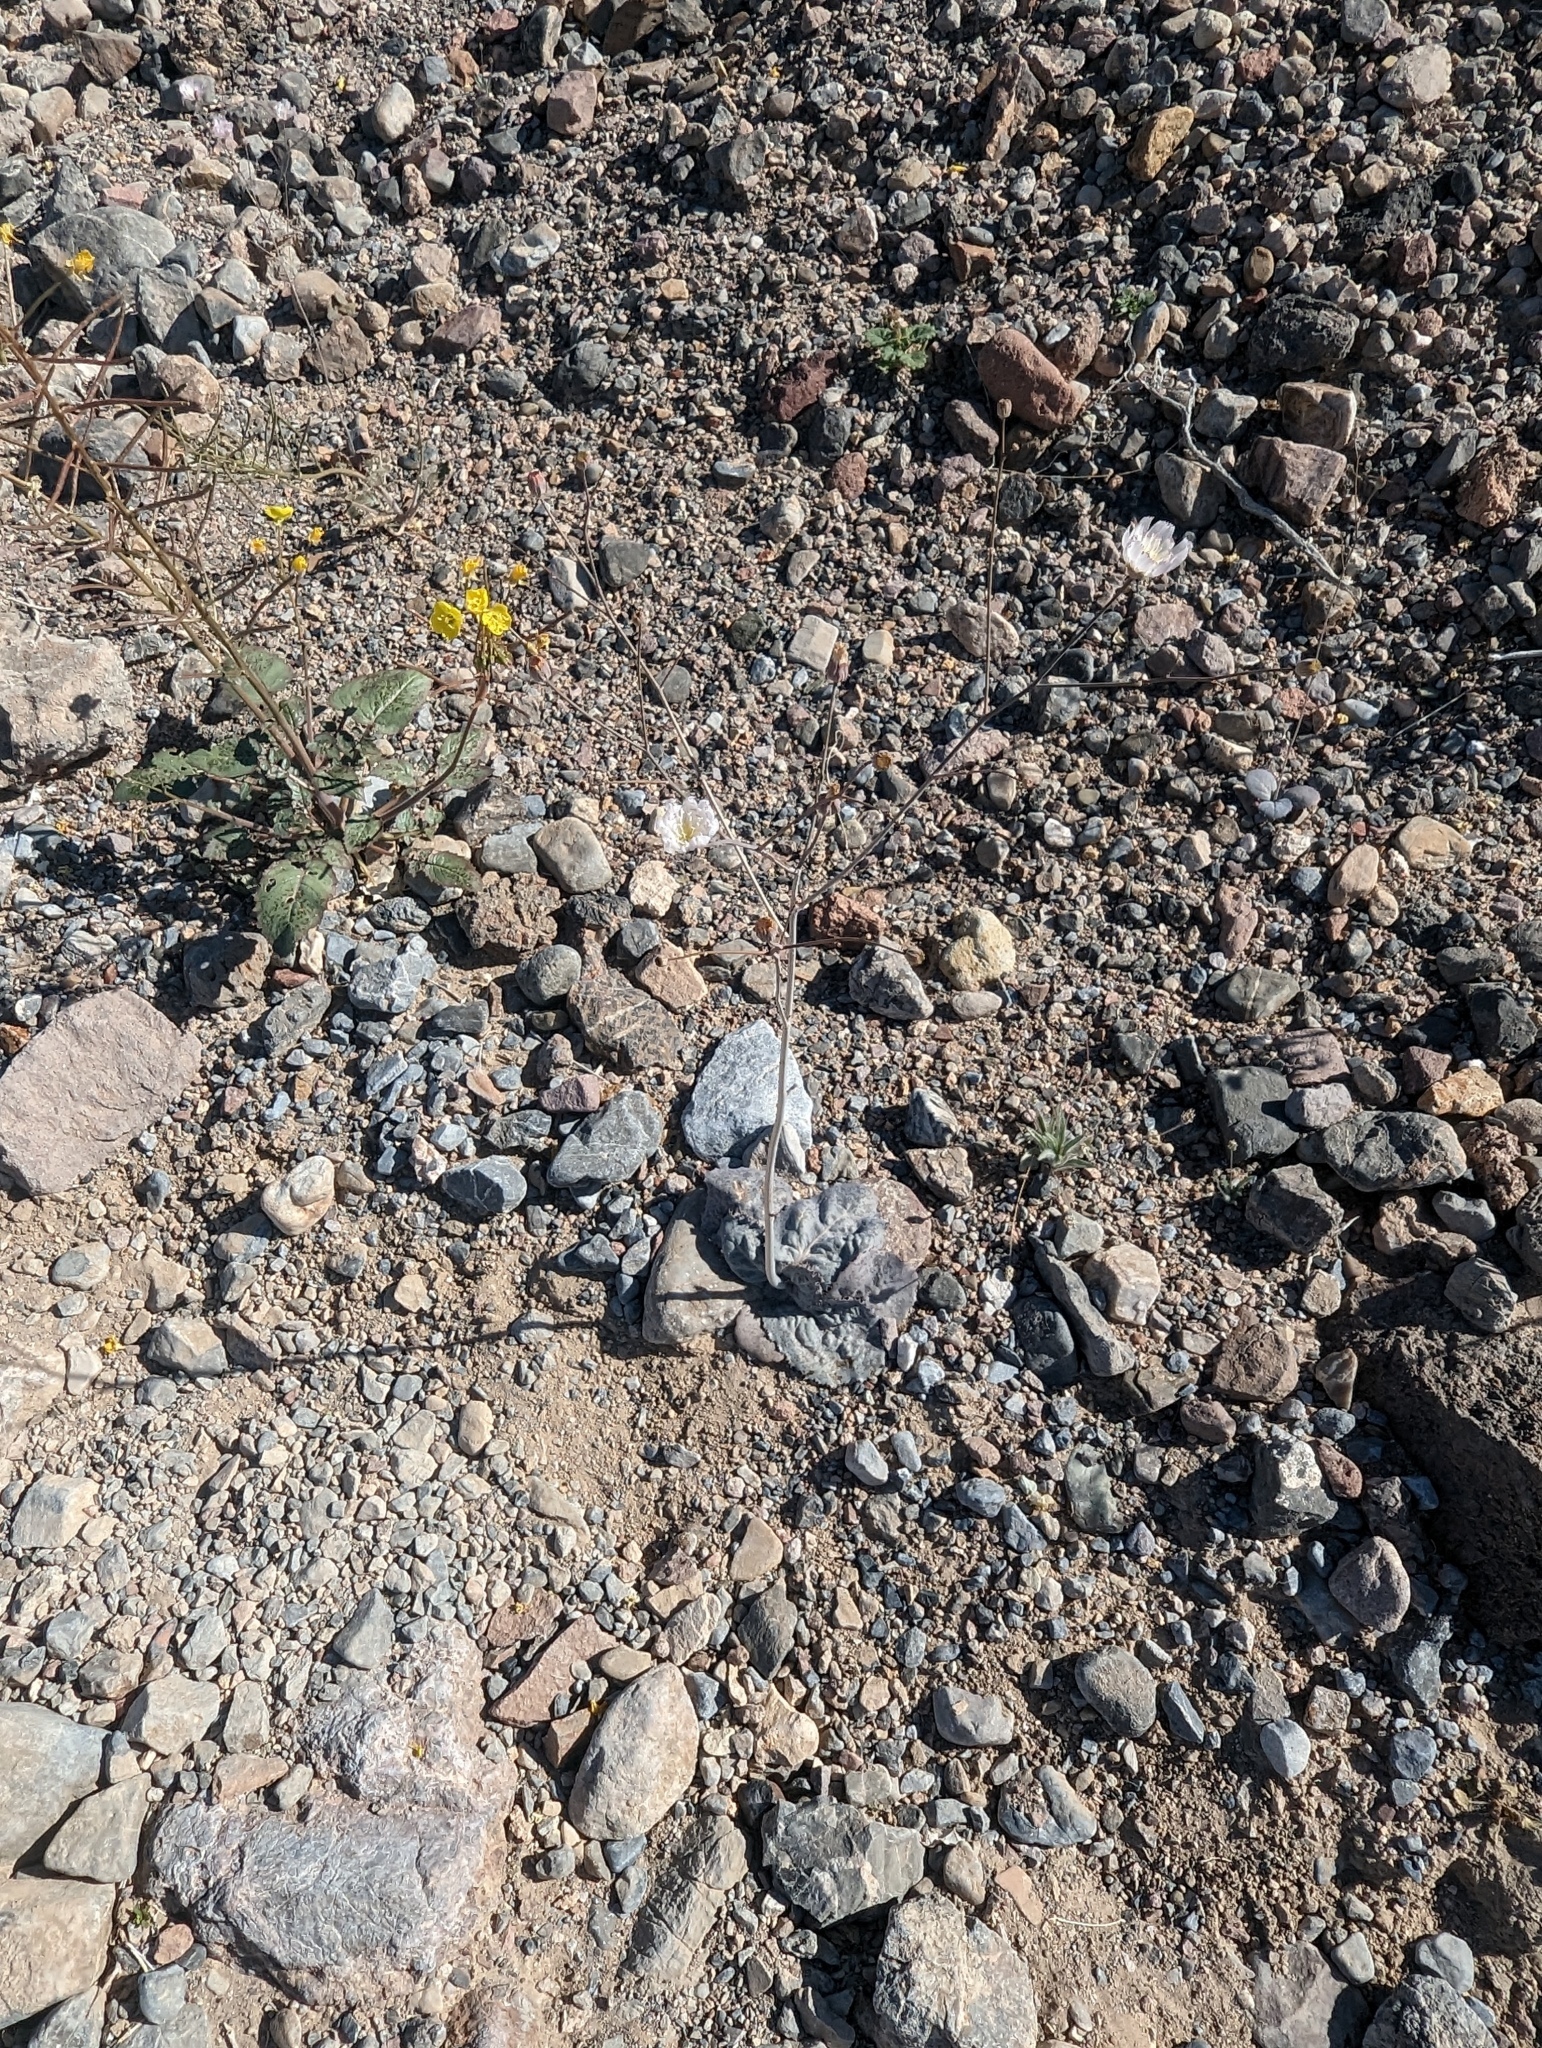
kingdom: Plantae
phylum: Tracheophyta
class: Magnoliopsida
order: Asterales
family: Asteraceae
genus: Atrichoseris
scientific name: Atrichoseris platyphylla
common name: Tobaccoweed
